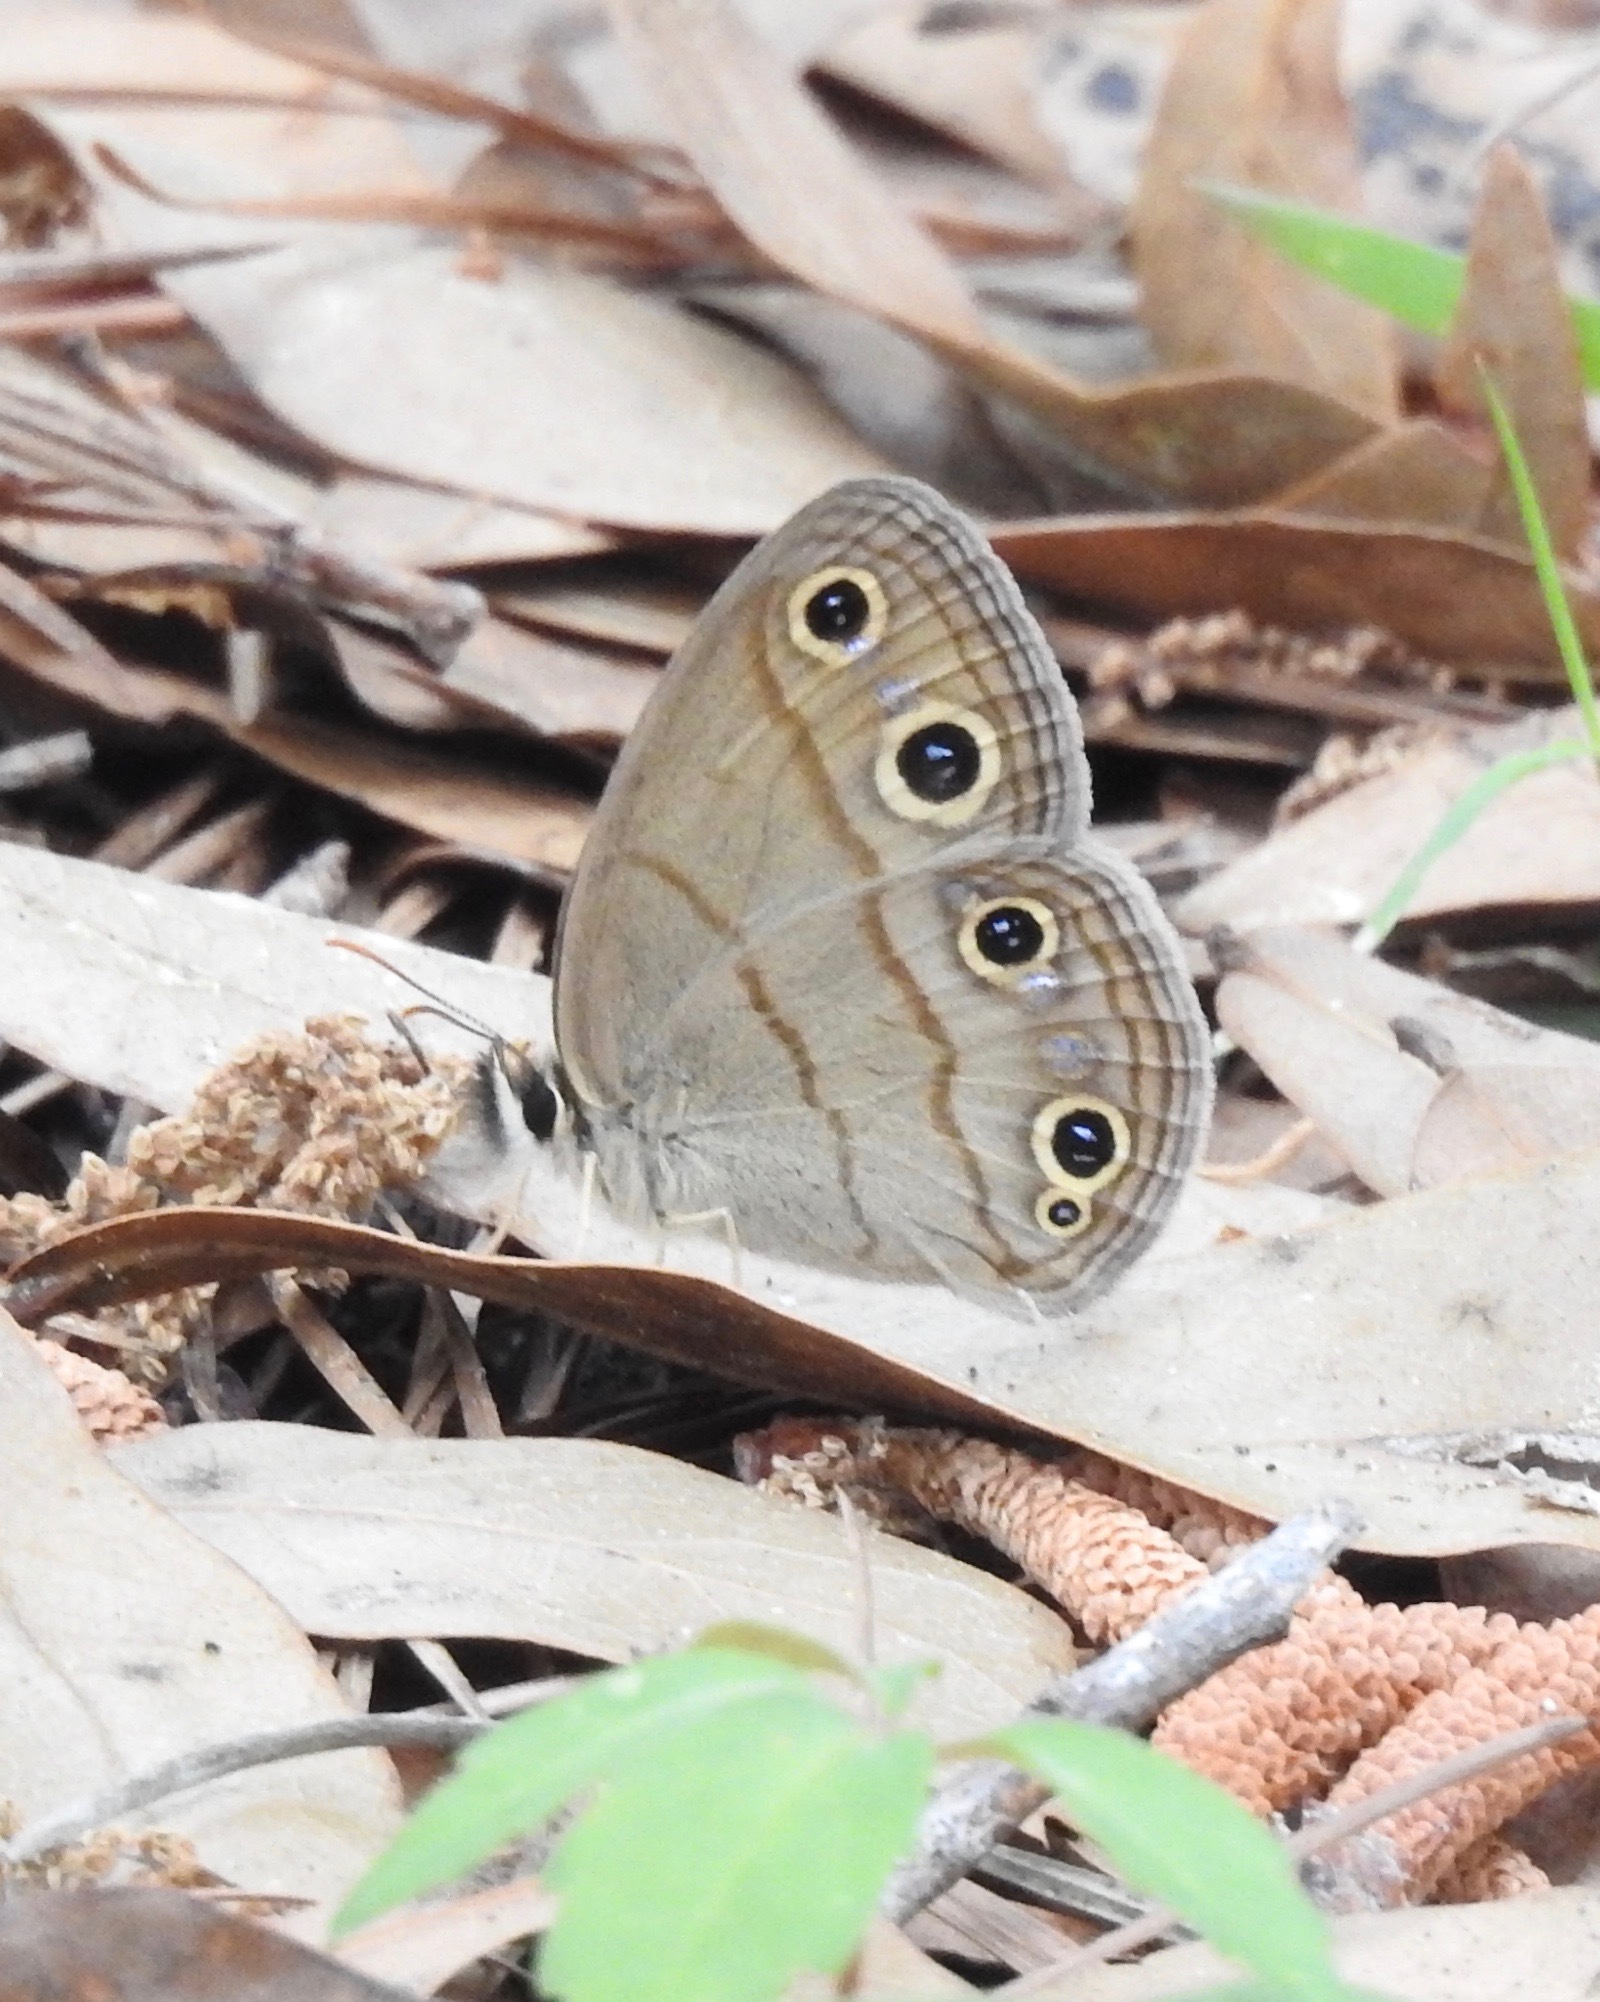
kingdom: Animalia
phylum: Arthropoda
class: Insecta
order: Lepidoptera
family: Nymphalidae
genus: Euptychia
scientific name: Euptychia cymela
